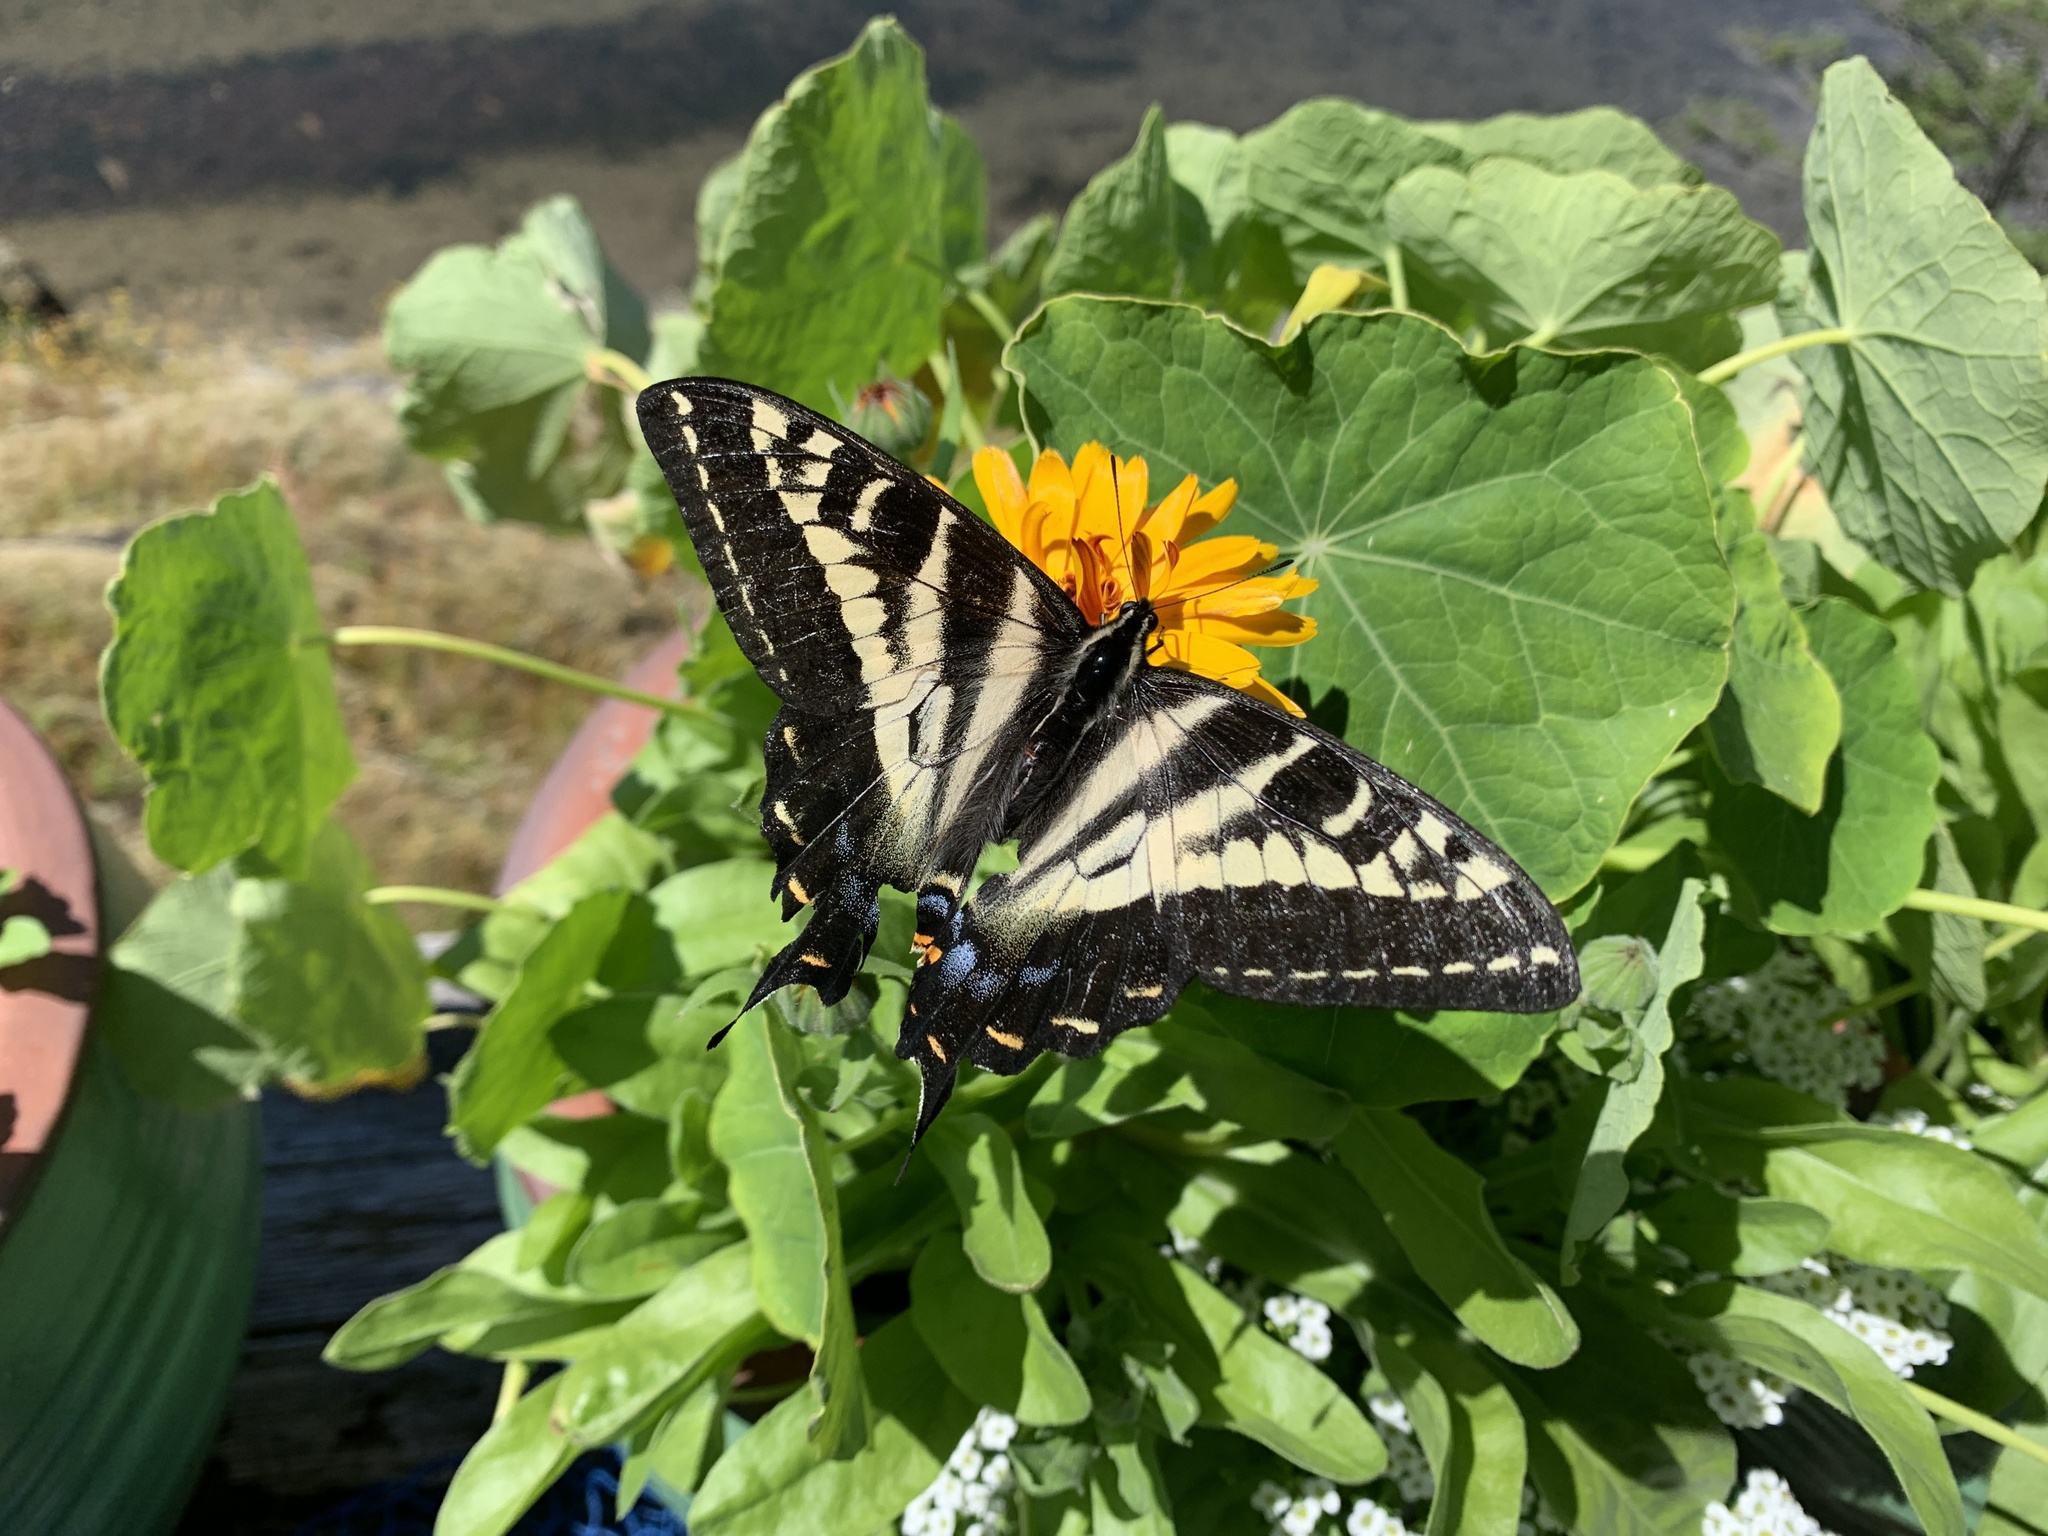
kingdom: Animalia
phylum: Arthropoda
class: Insecta
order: Lepidoptera
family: Papilionidae
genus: Papilio
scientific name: Papilio eurymedon
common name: Pale tiger swallowtail
